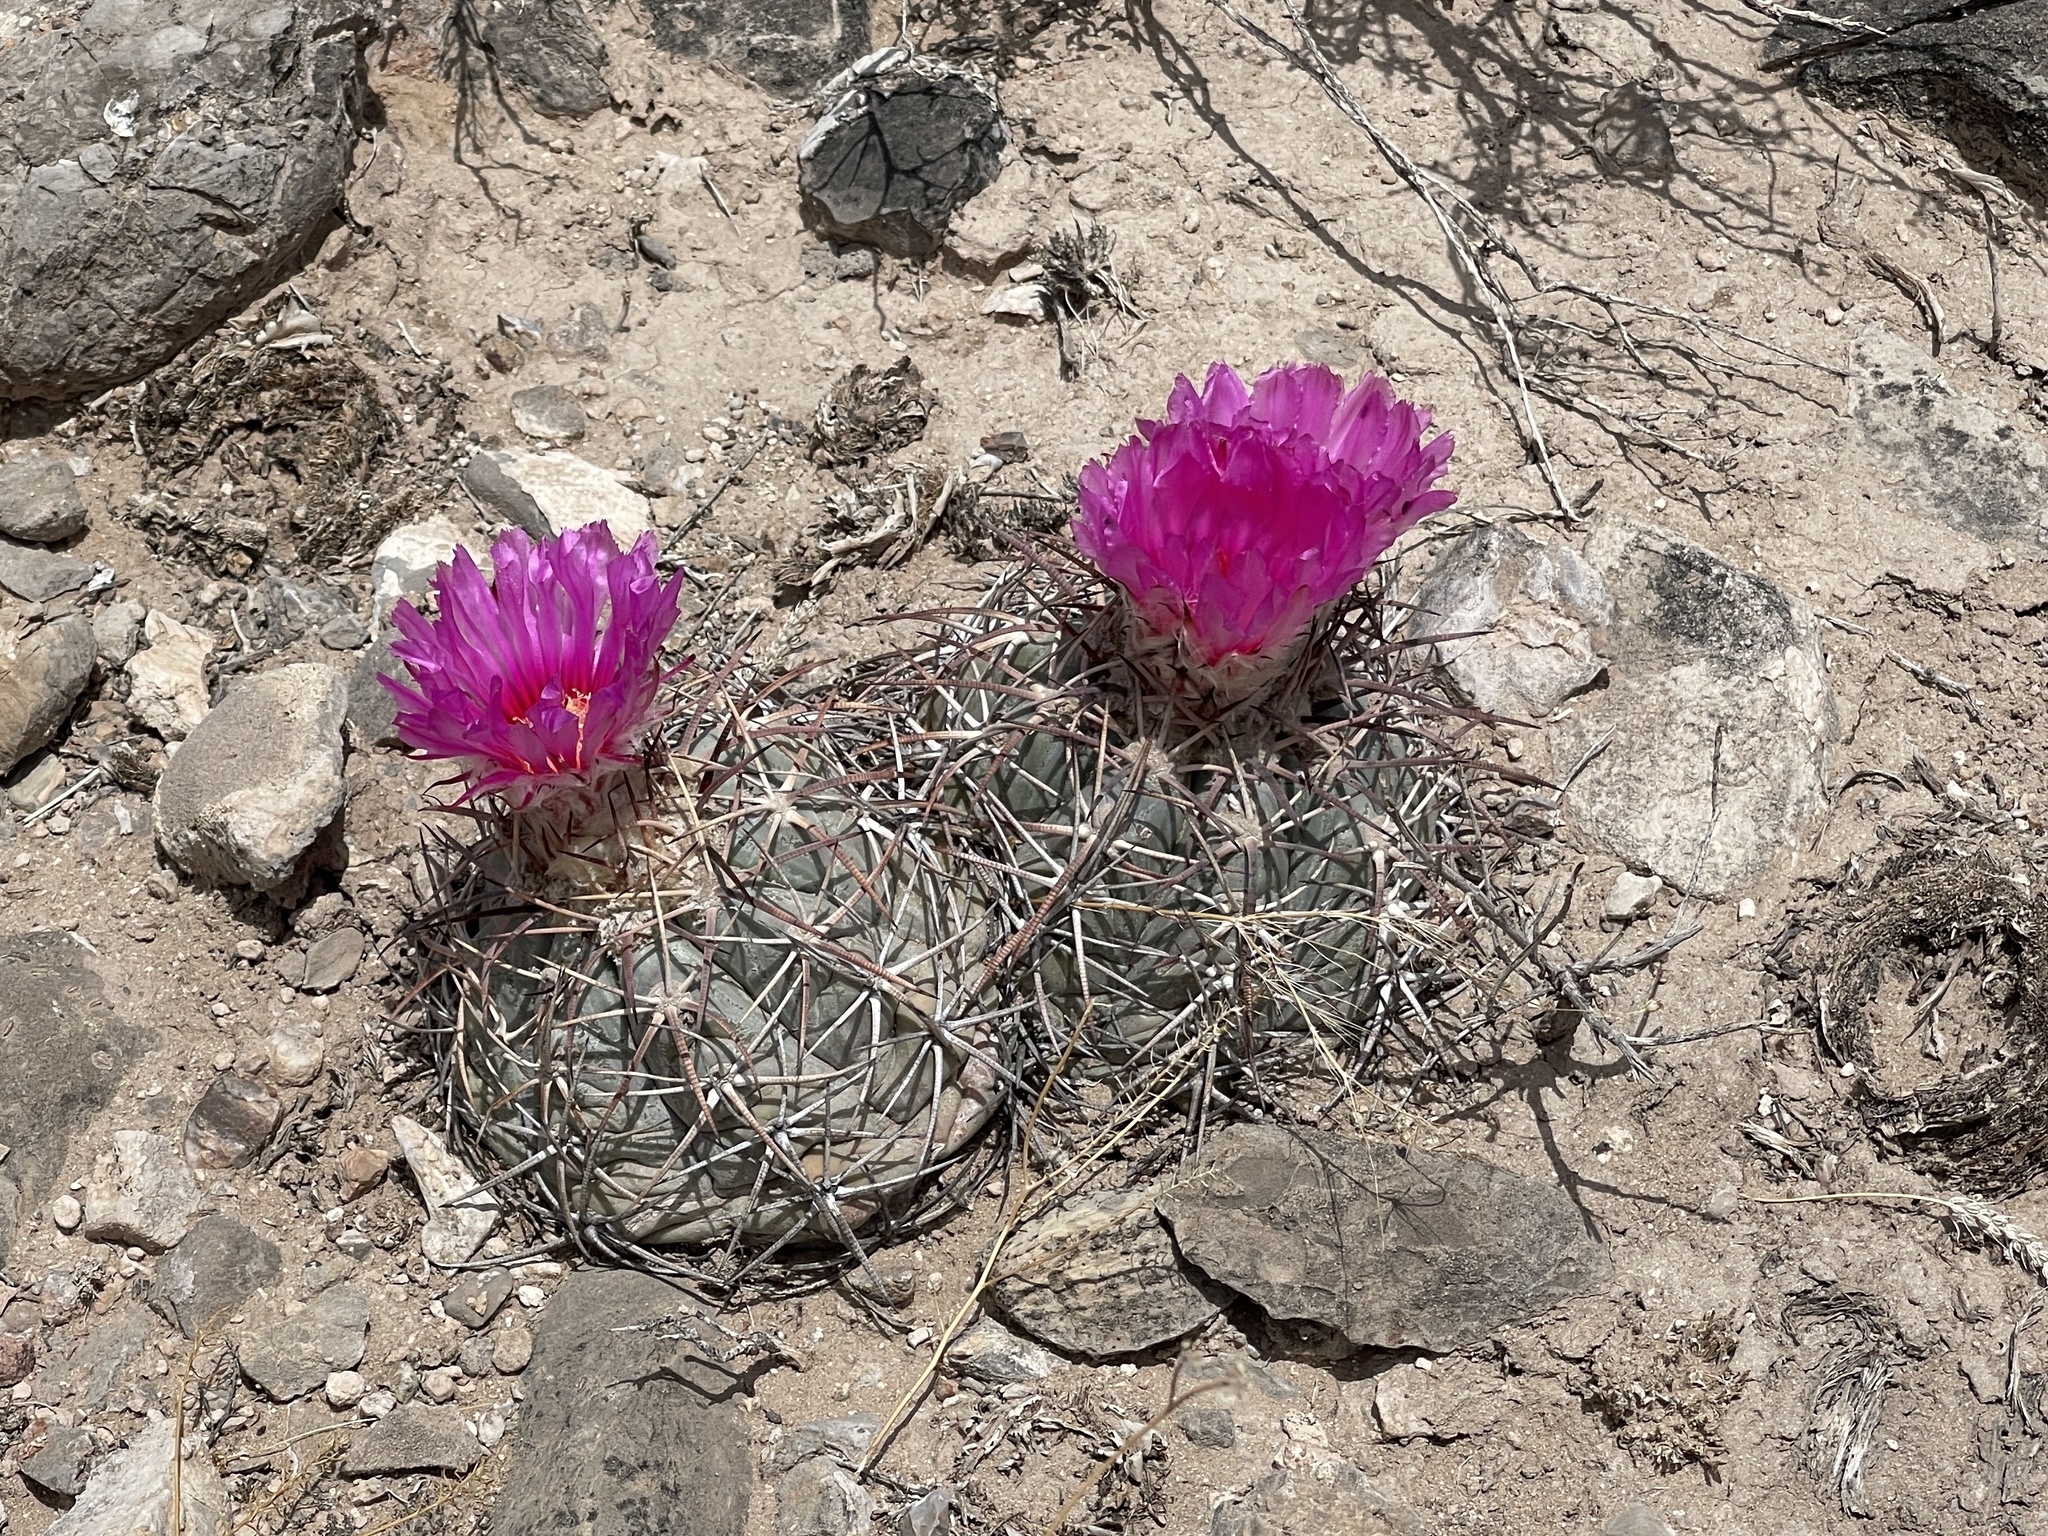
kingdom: Plantae
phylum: Tracheophyta
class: Magnoliopsida
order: Caryophyllales
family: Cactaceae
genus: Echinocactus
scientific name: Echinocactus horizonthalonius
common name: Devilshead
